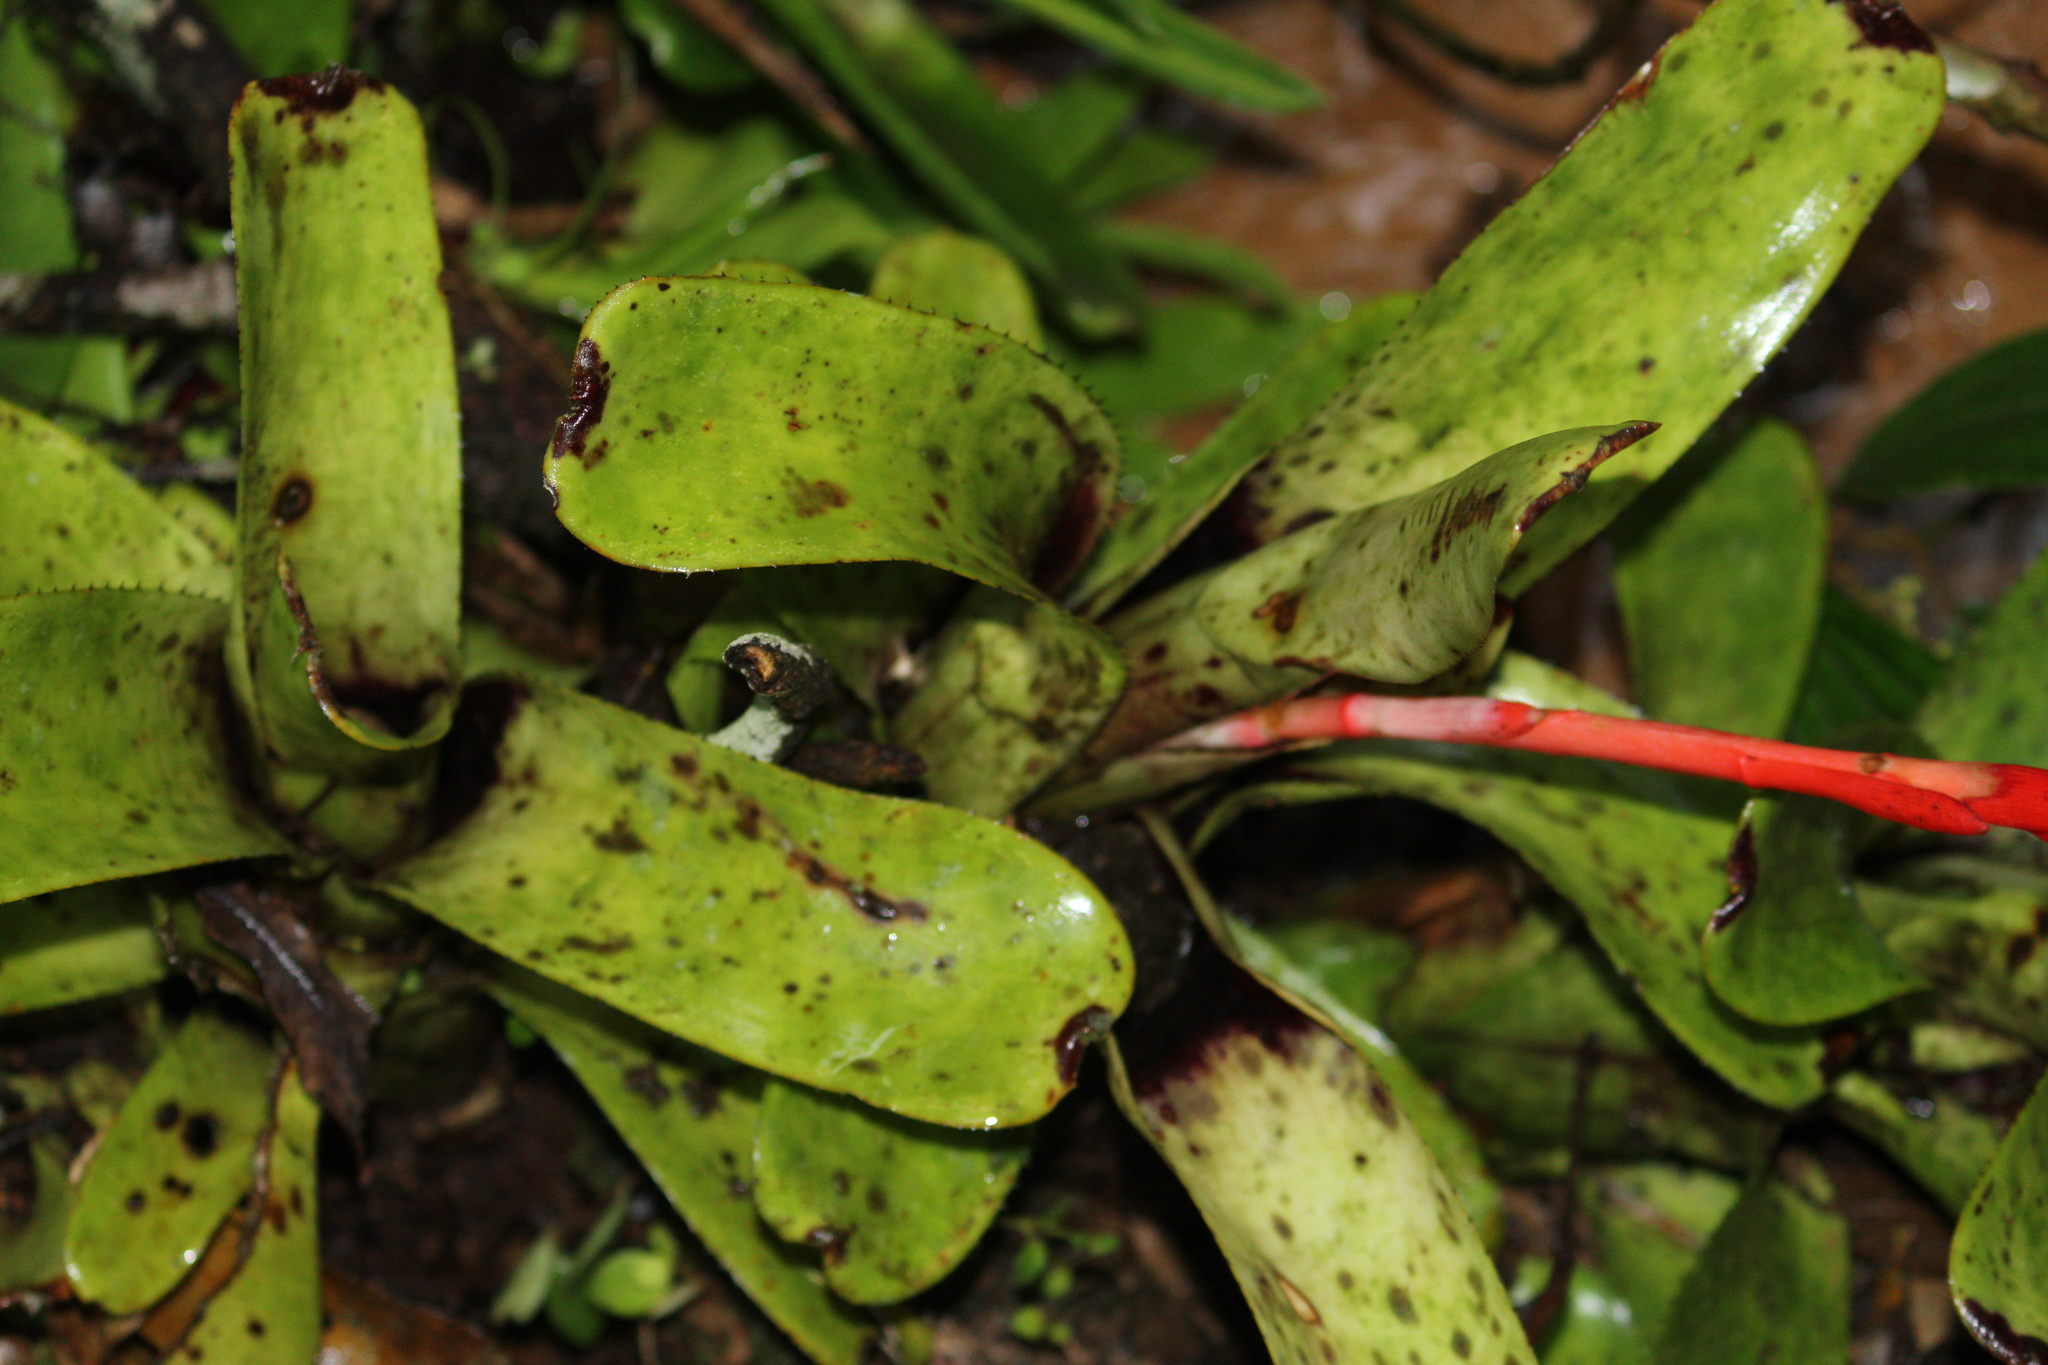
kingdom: Plantae
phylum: Tracheophyta
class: Liliopsida
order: Poales
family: Bromeliaceae
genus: Aechmea
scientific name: Aechmea nudicaulis
